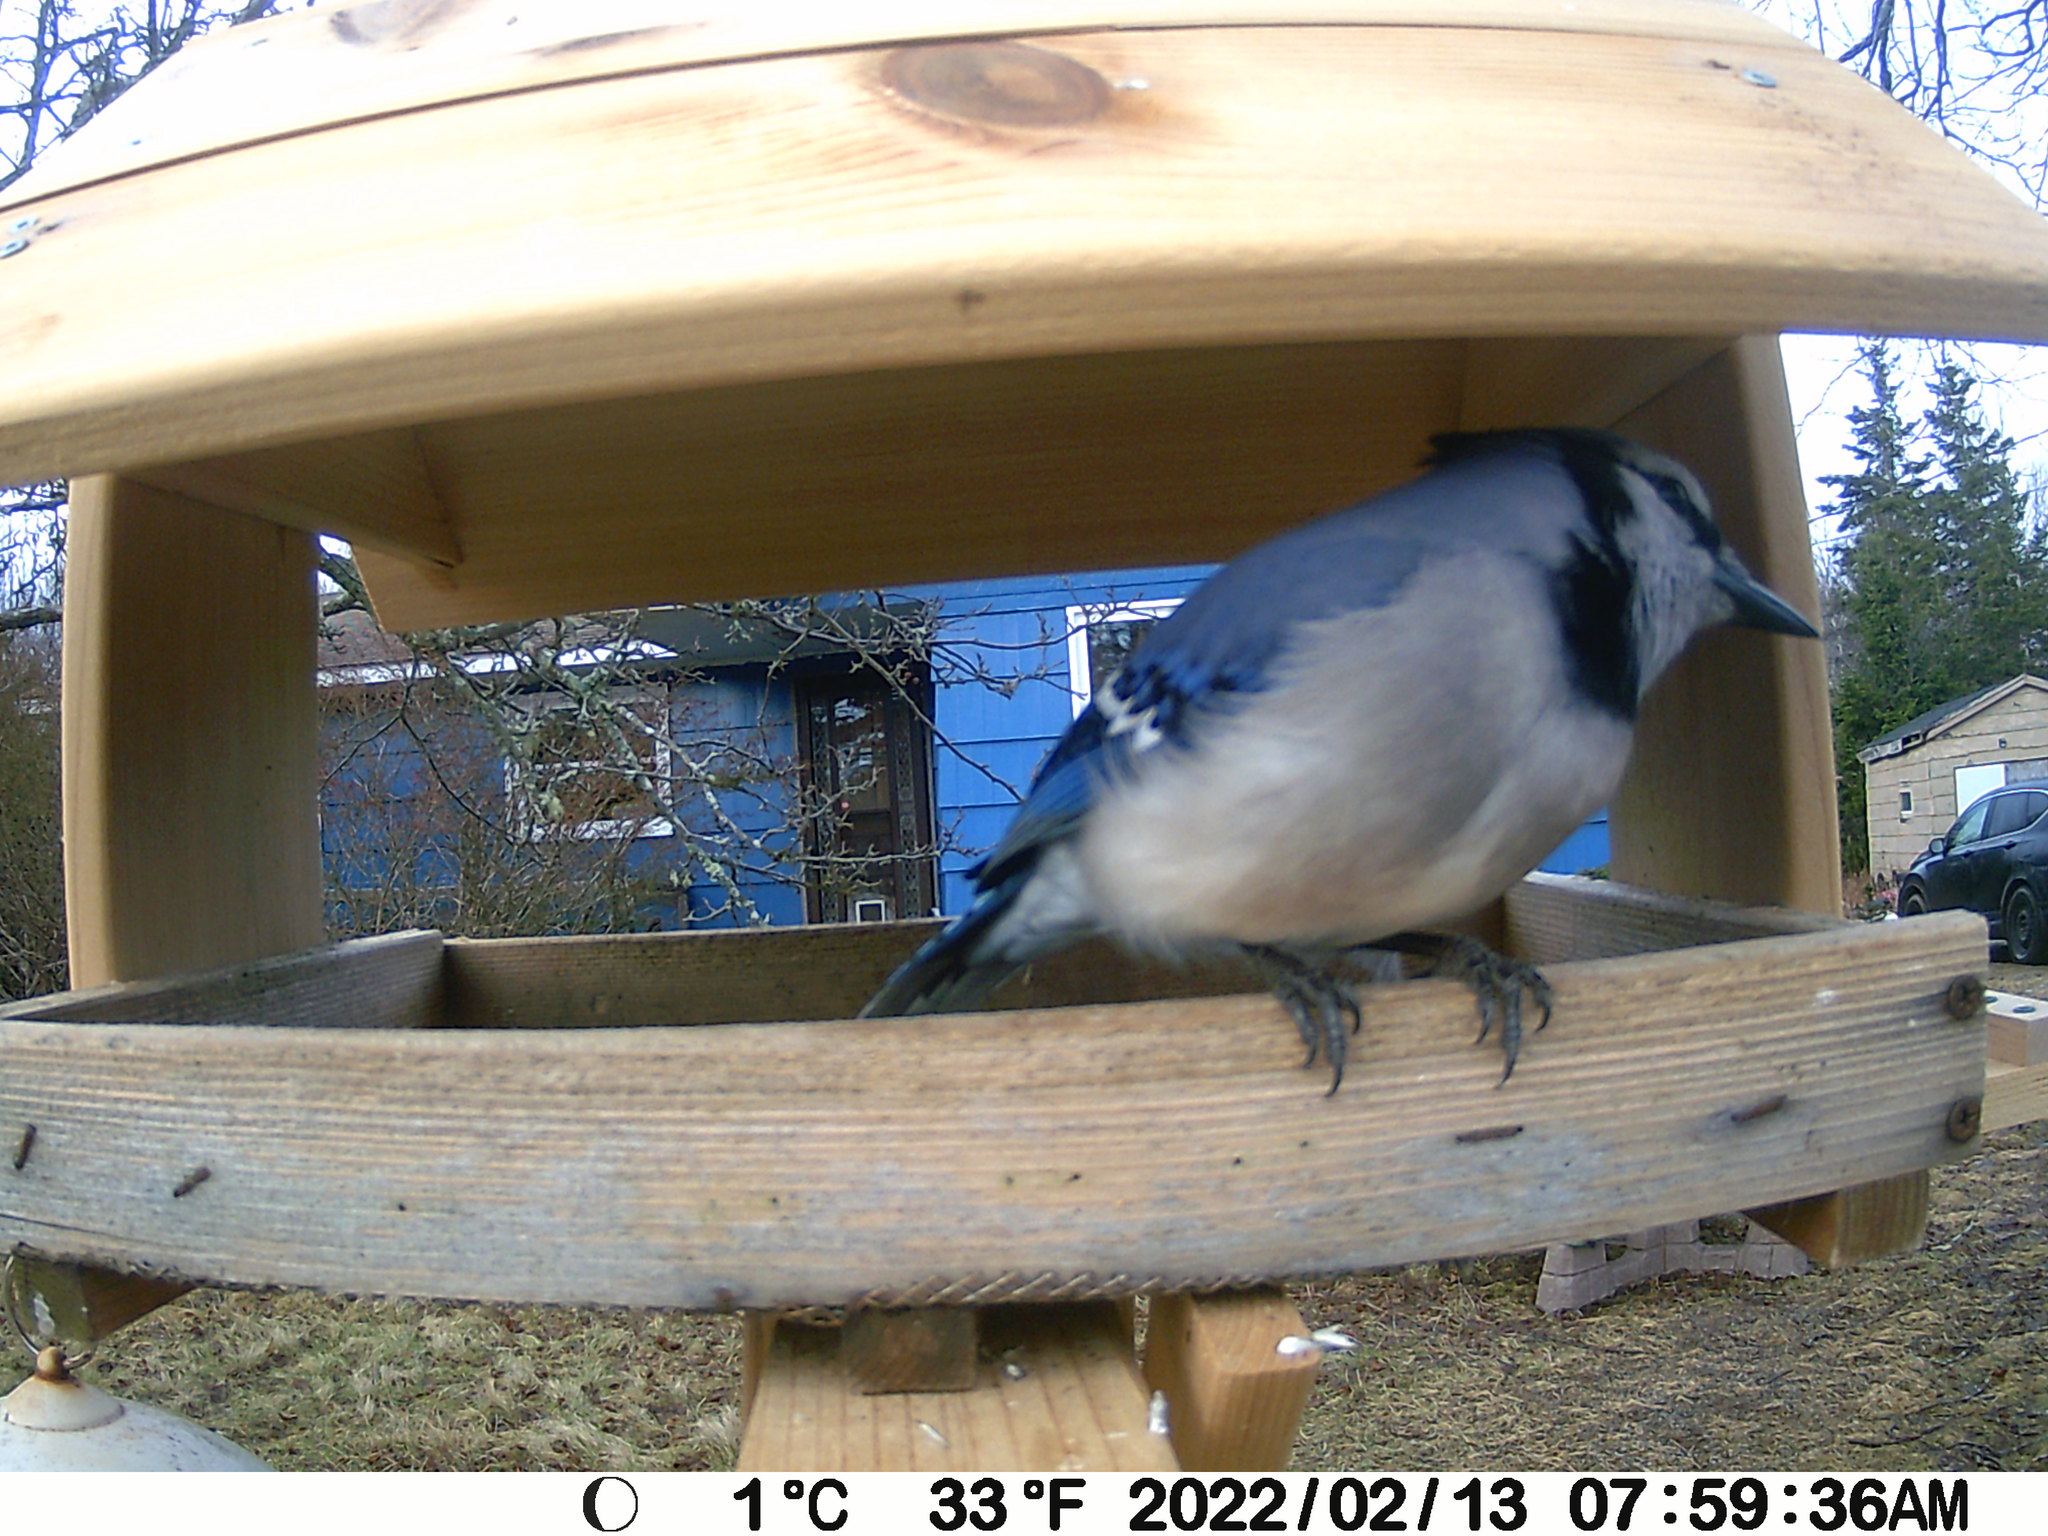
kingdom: Animalia
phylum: Chordata
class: Aves
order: Passeriformes
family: Corvidae
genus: Cyanocitta
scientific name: Cyanocitta cristata
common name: Blue jay
